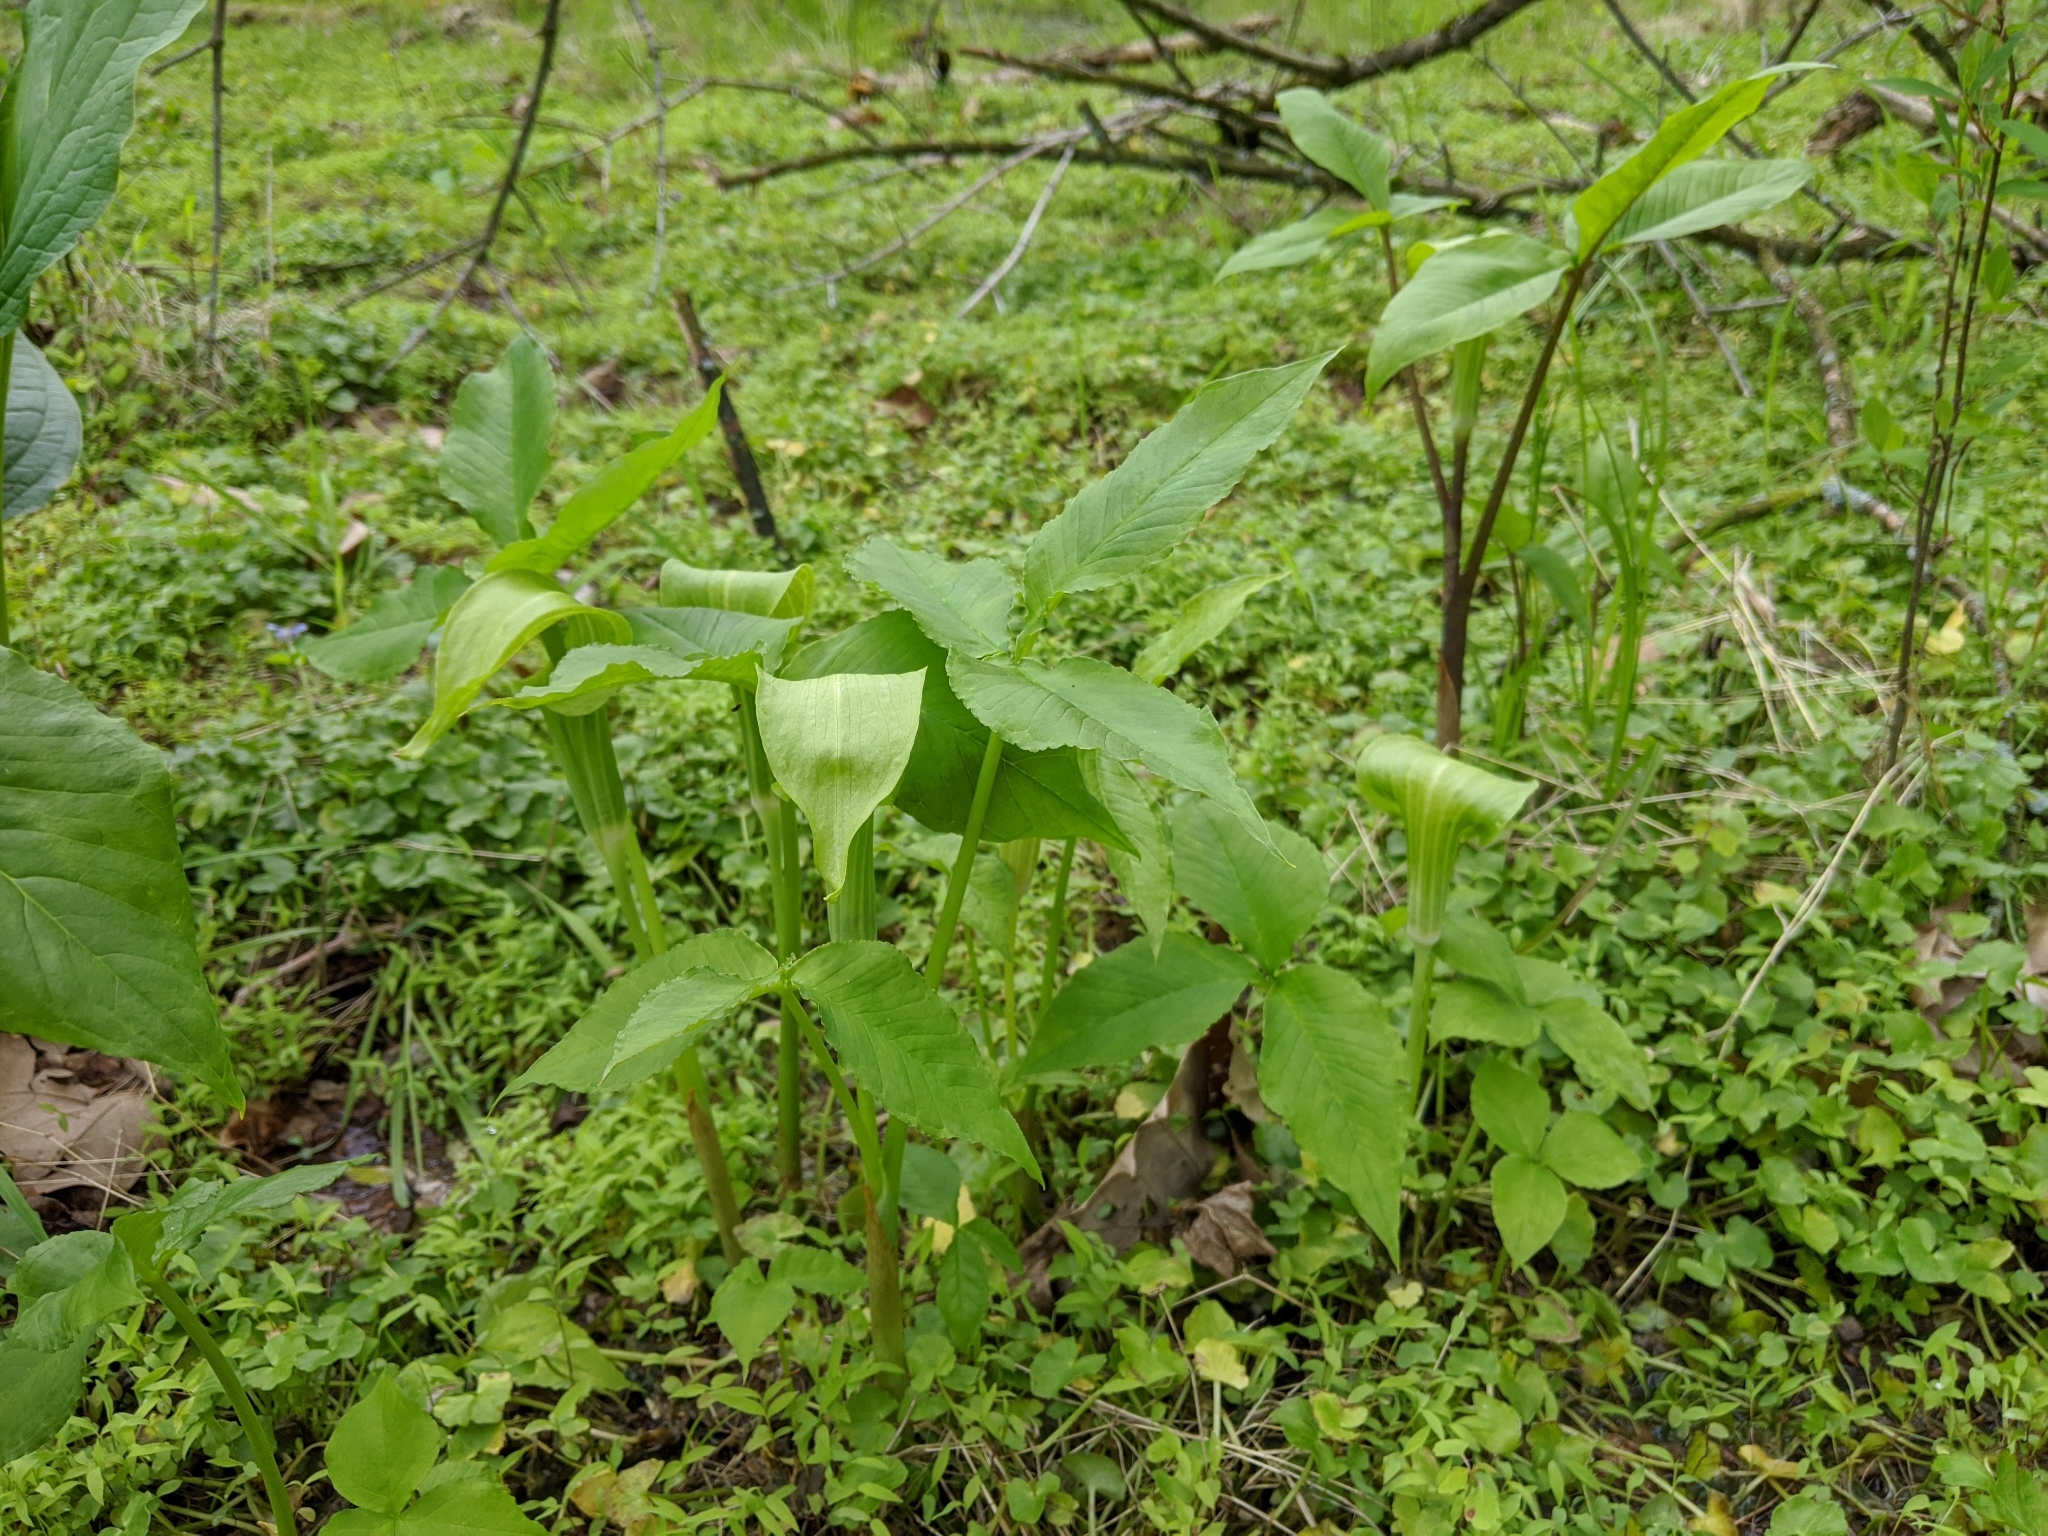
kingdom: Plantae
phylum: Tracheophyta
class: Liliopsida
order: Alismatales
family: Araceae
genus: Arisaema
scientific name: Arisaema triphyllum
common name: Jack-in-the-pulpit
